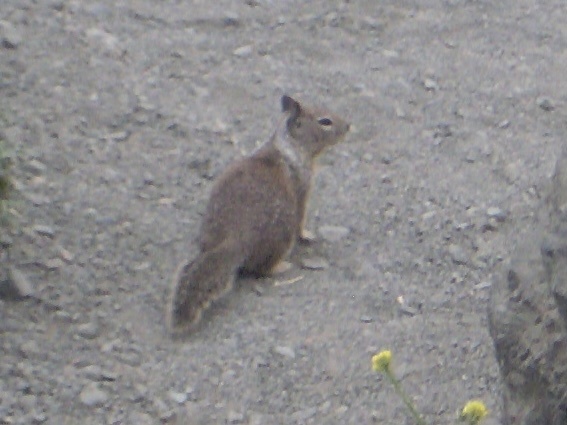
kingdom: Animalia
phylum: Chordata
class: Mammalia
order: Rodentia
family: Sciuridae
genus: Otospermophilus
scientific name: Otospermophilus beecheyi
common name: California ground squirrel
